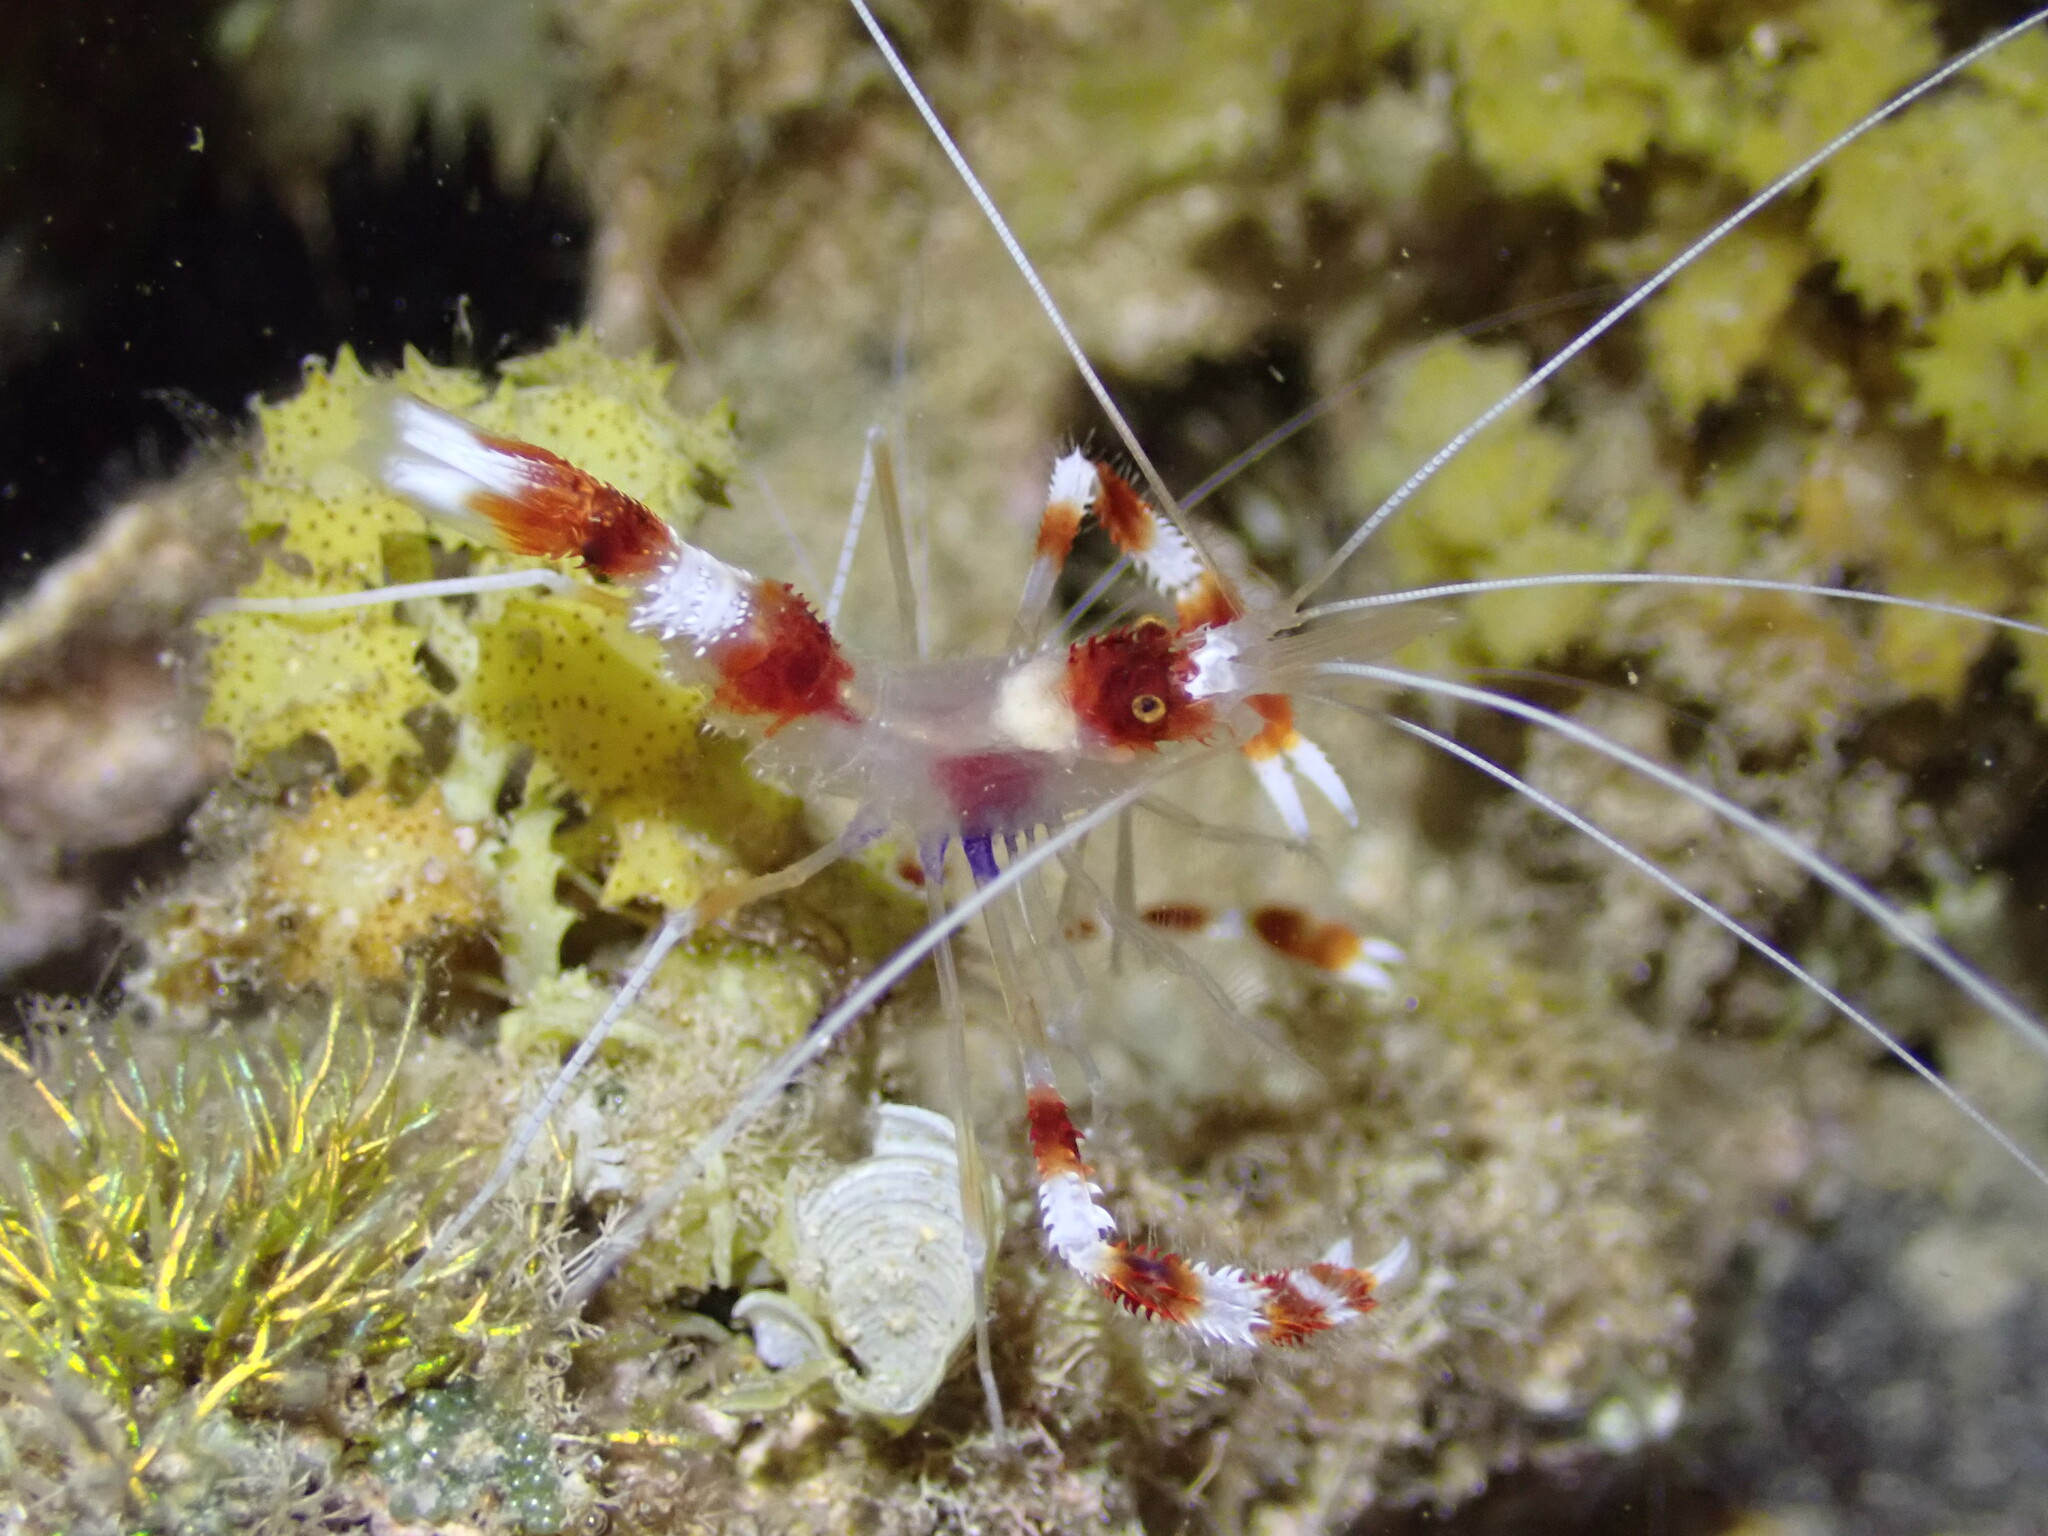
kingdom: Animalia
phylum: Arthropoda
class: Malacostraca
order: Decapoda
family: Stenopodidae
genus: Stenopus
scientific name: Stenopus hispidus
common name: Banded coral shrimp
